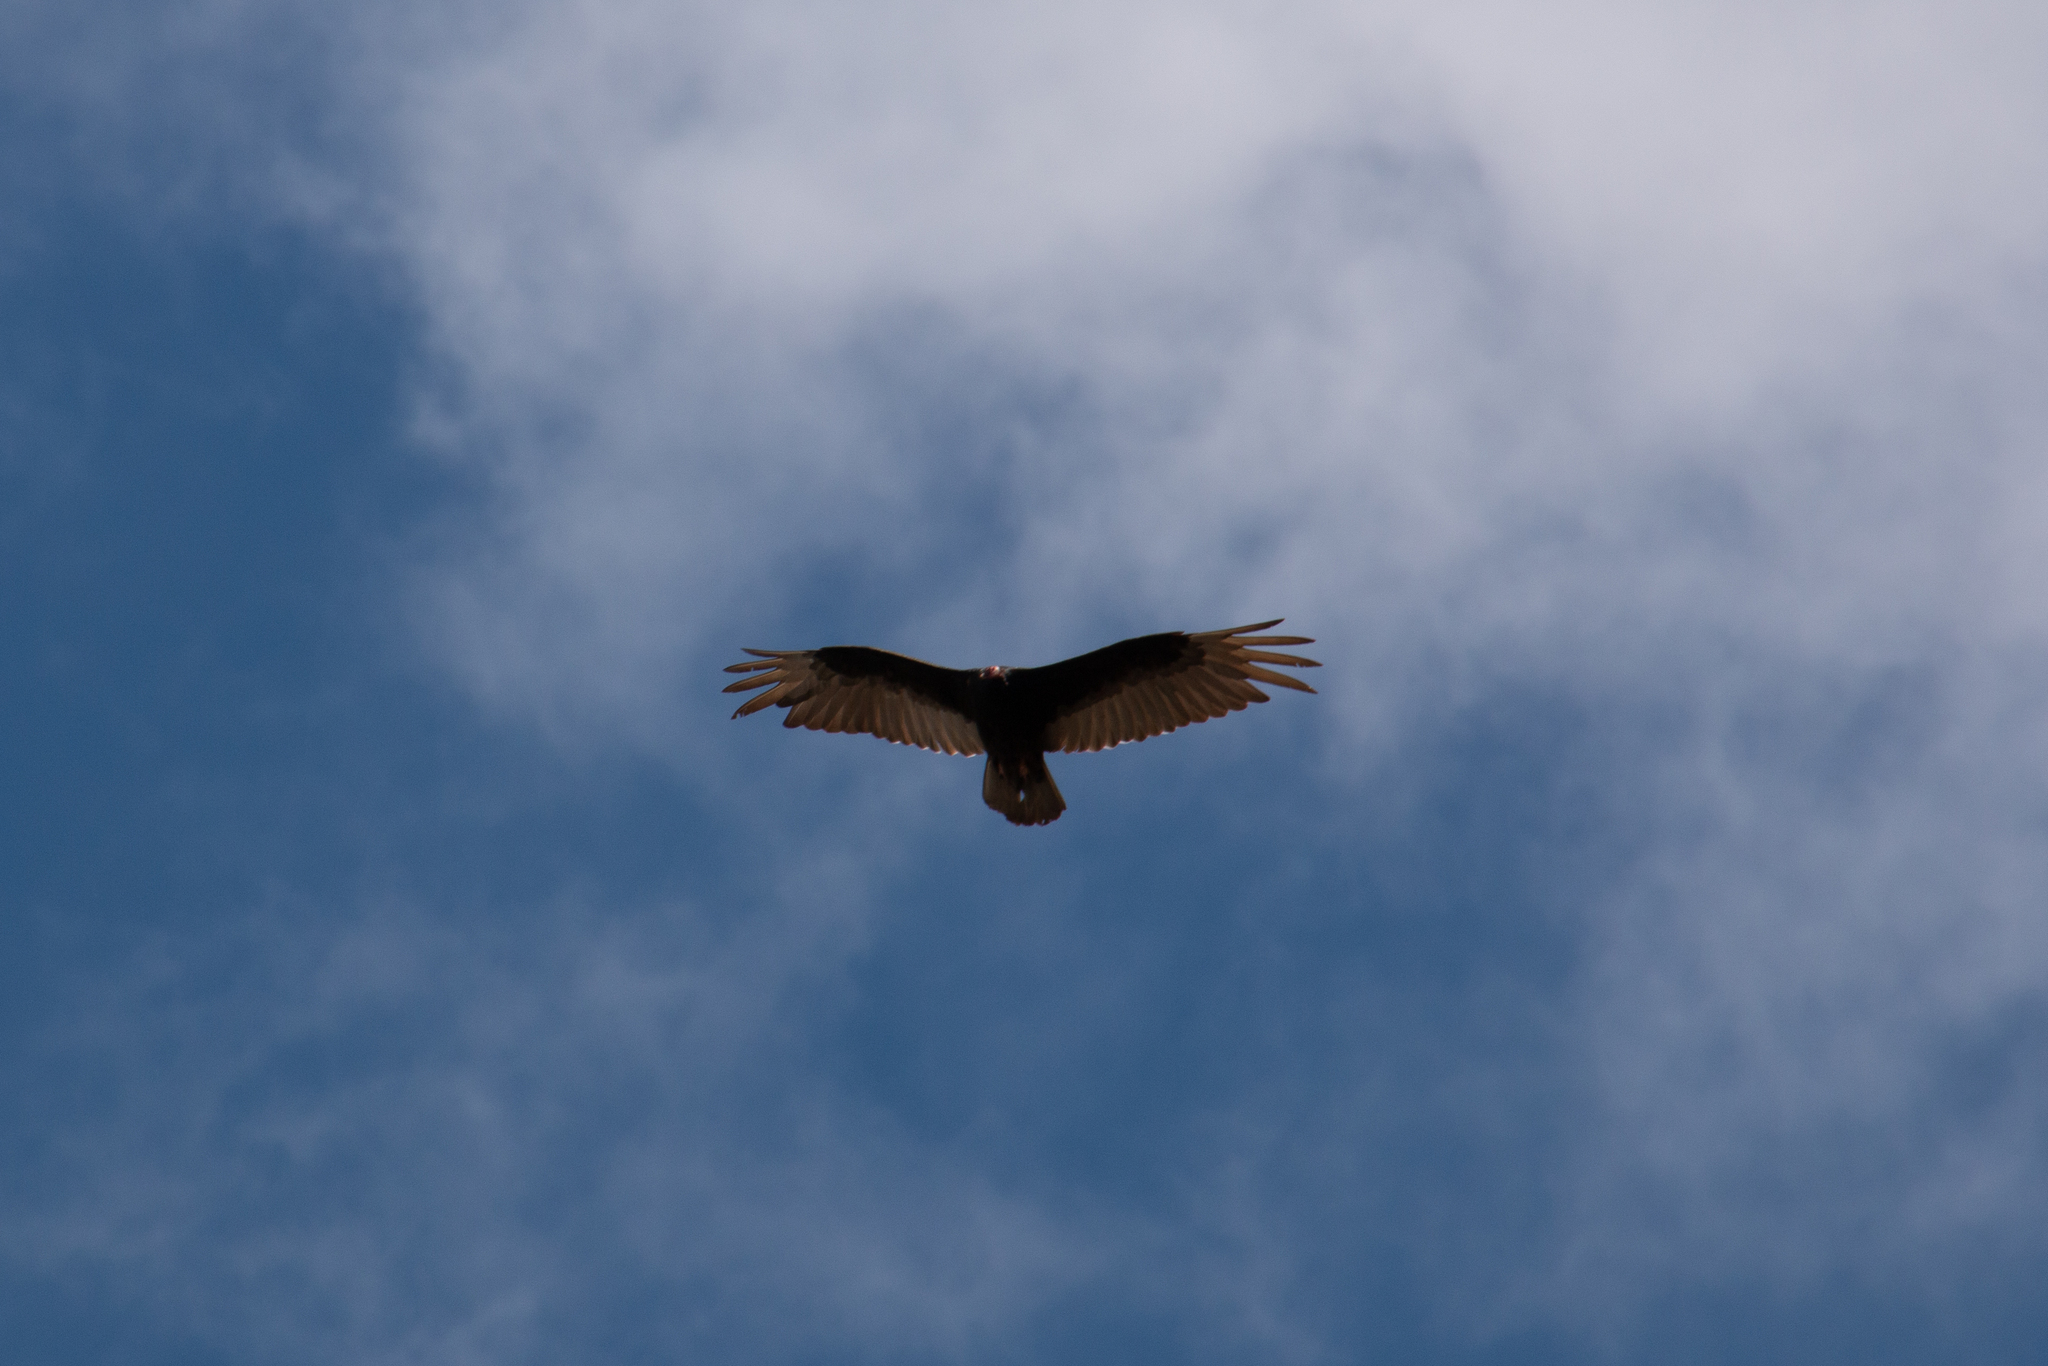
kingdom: Animalia
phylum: Chordata
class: Aves
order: Accipitriformes
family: Cathartidae
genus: Cathartes
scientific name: Cathartes aura
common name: Turkey vulture
